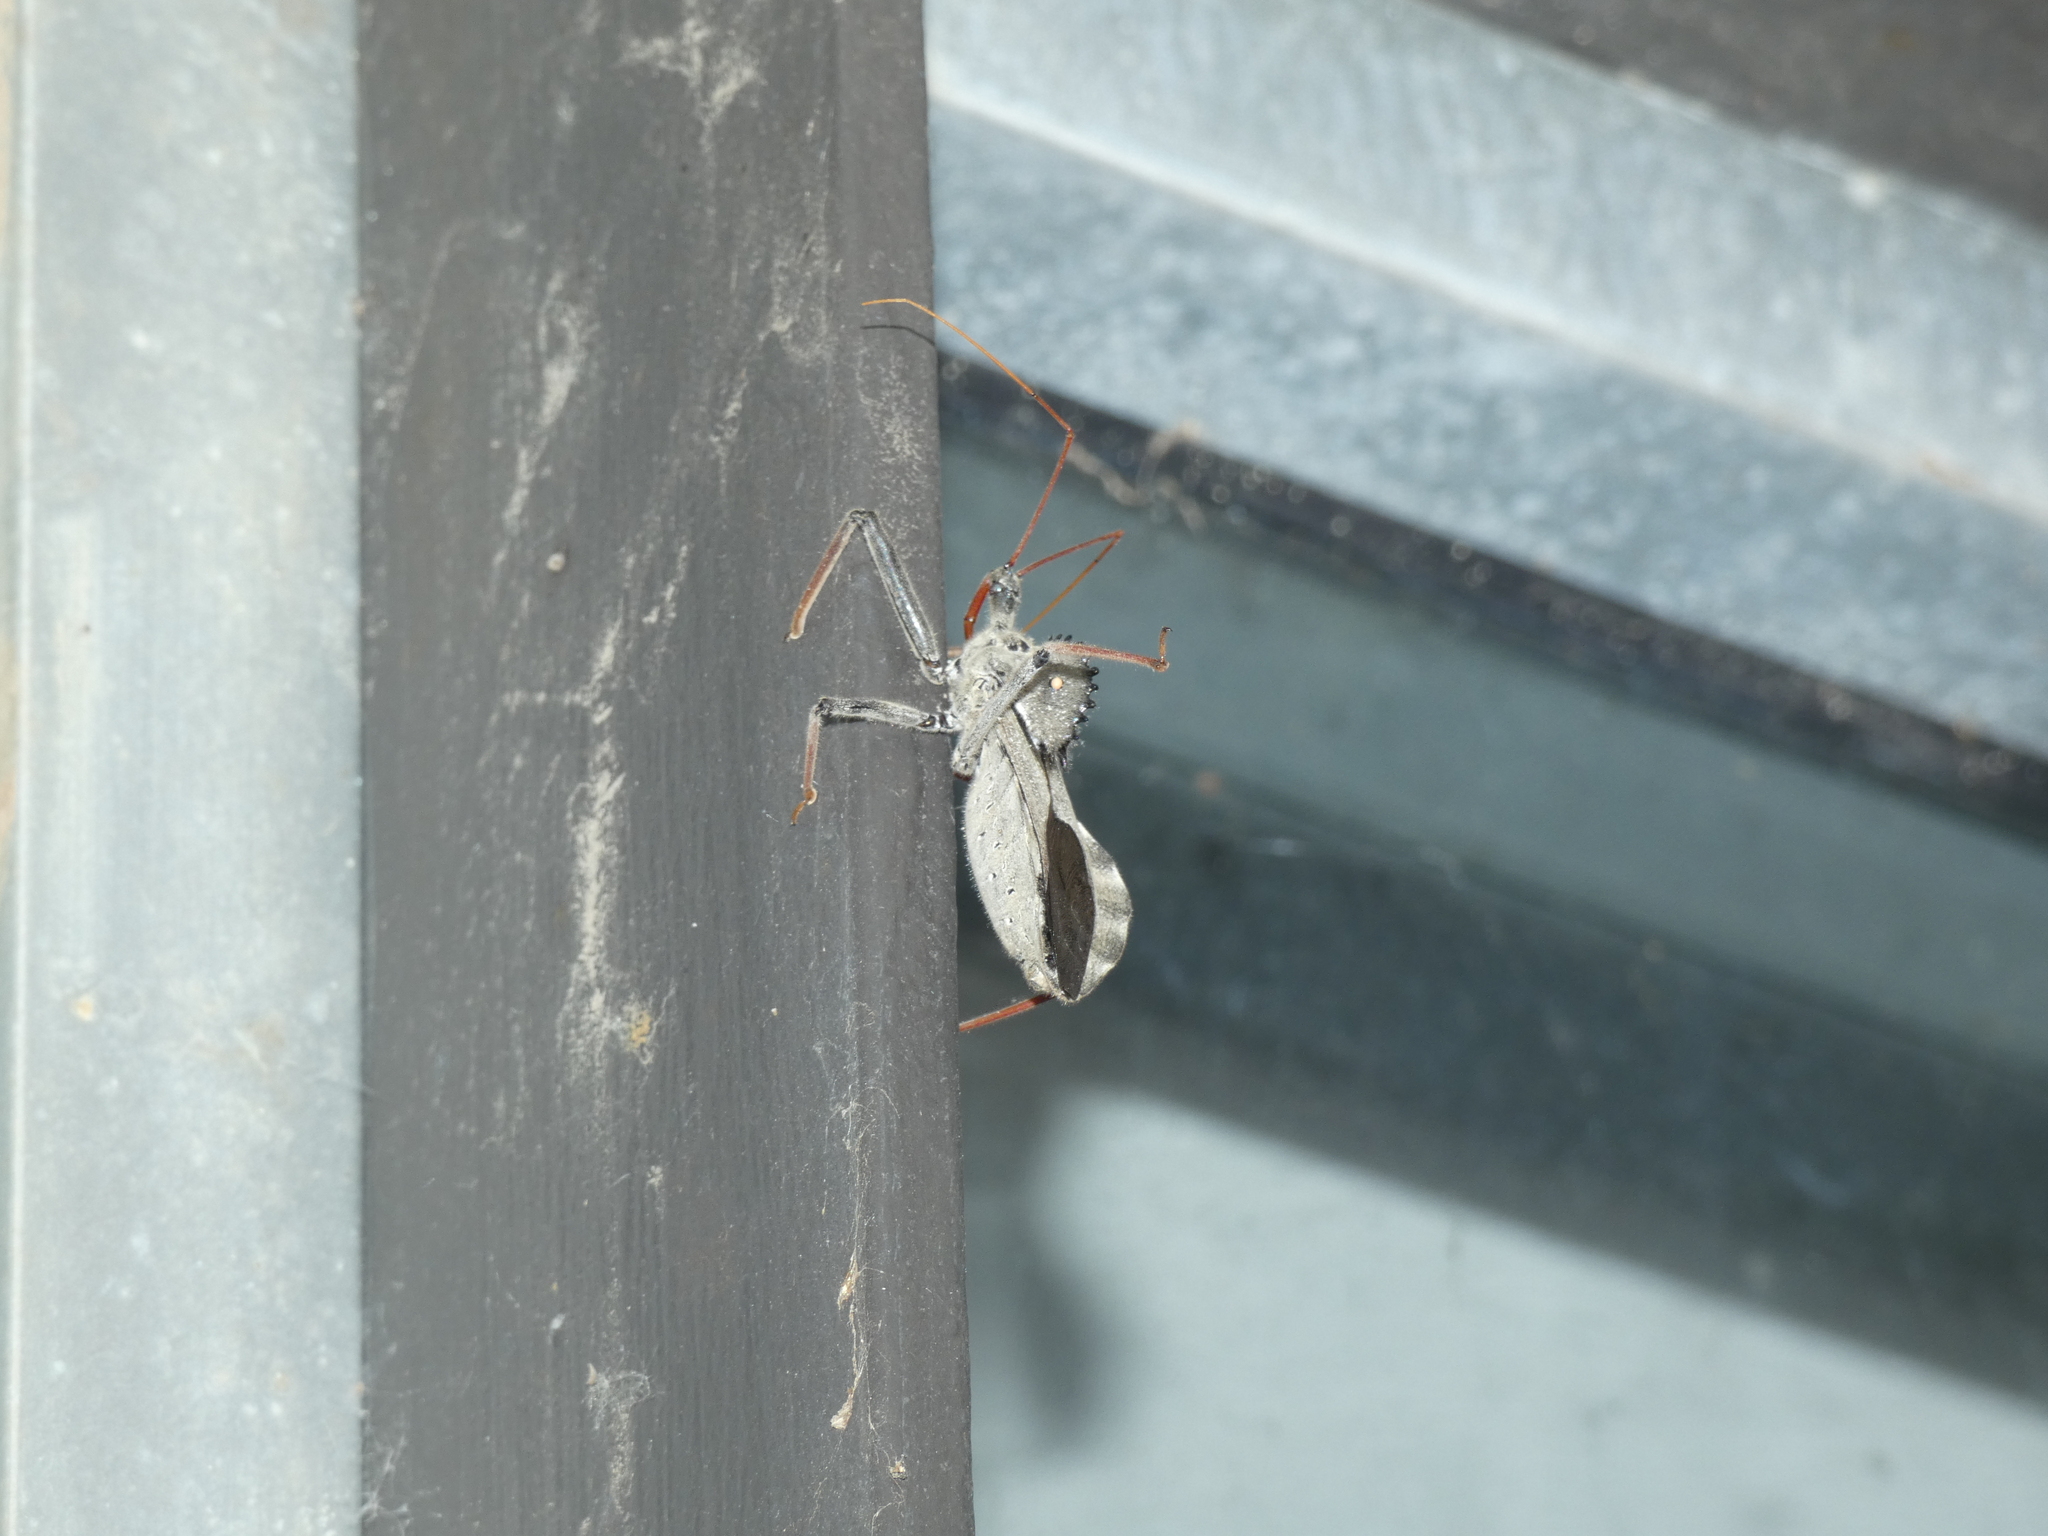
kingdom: Animalia
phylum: Arthropoda
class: Insecta
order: Hemiptera
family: Reduviidae
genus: Arilus
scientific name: Arilus cristatus
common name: North american wheel bug
